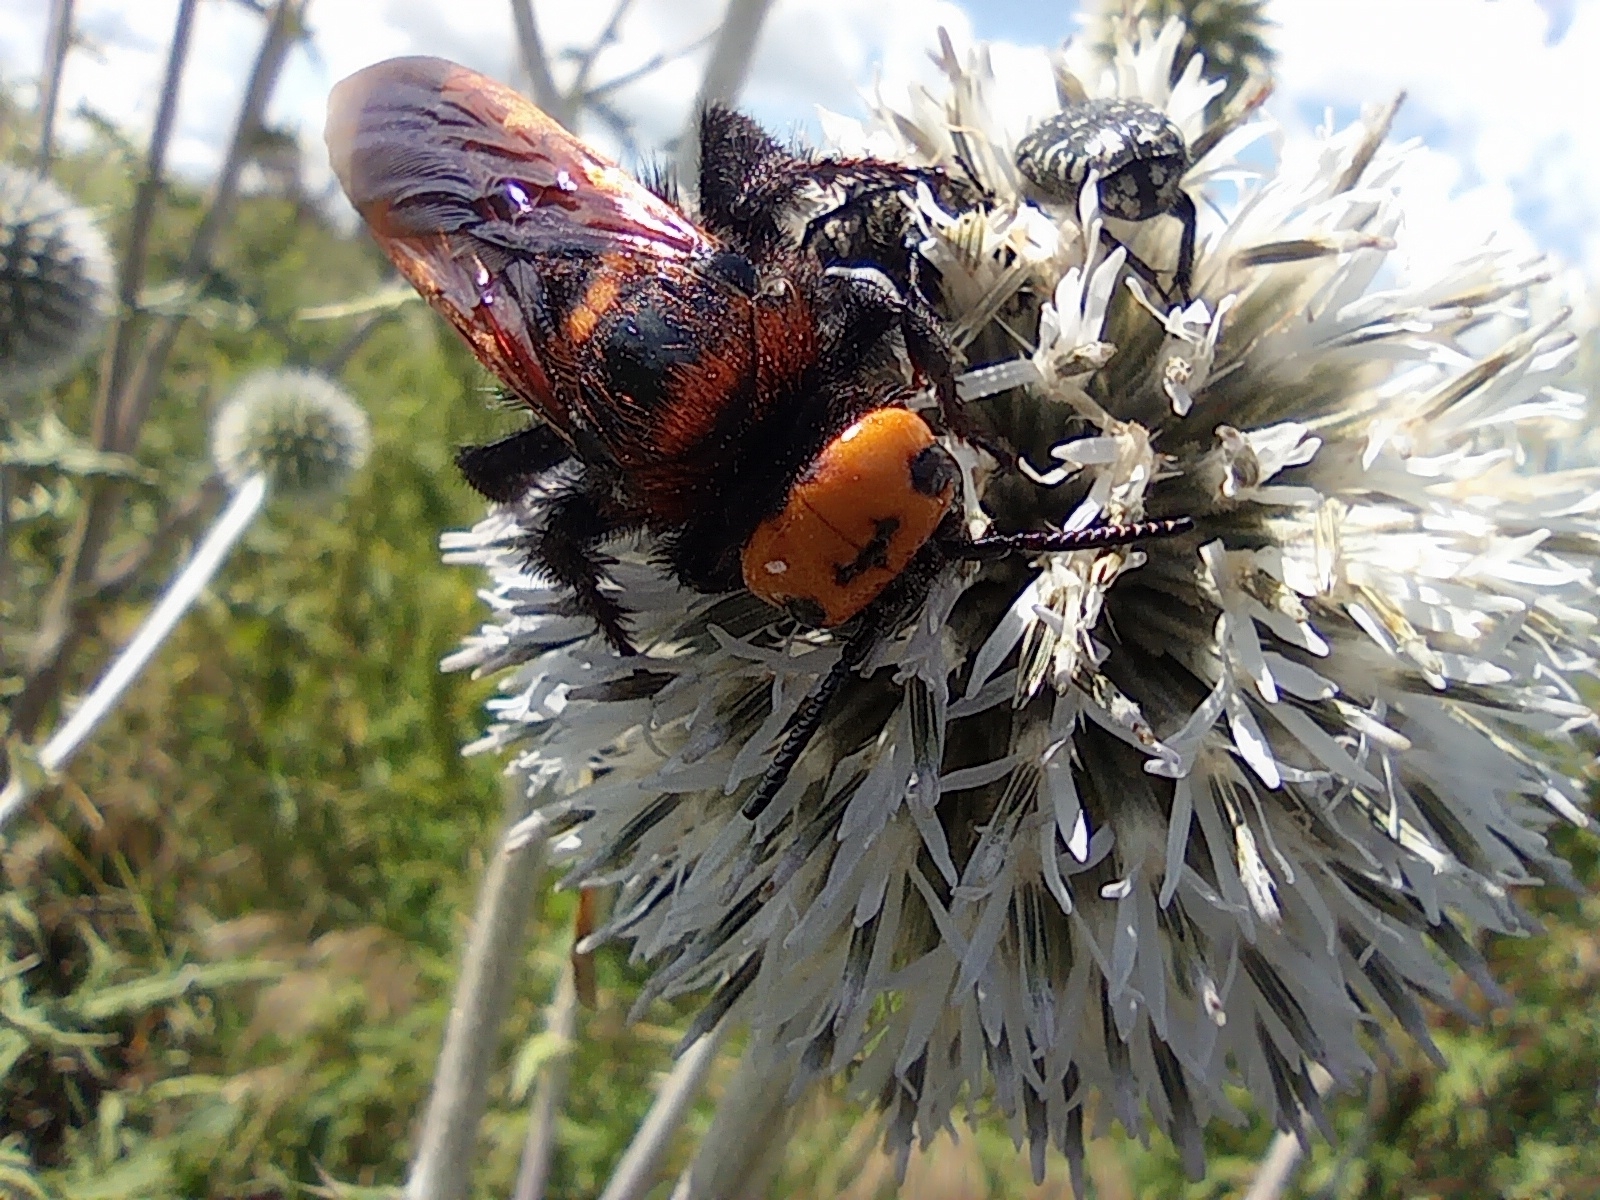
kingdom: Animalia
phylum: Arthropoda
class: Insecta
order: Hymenoptera
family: Scoliidae
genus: Megascolia
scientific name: Megascolia maculata
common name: Mammoth wasp
